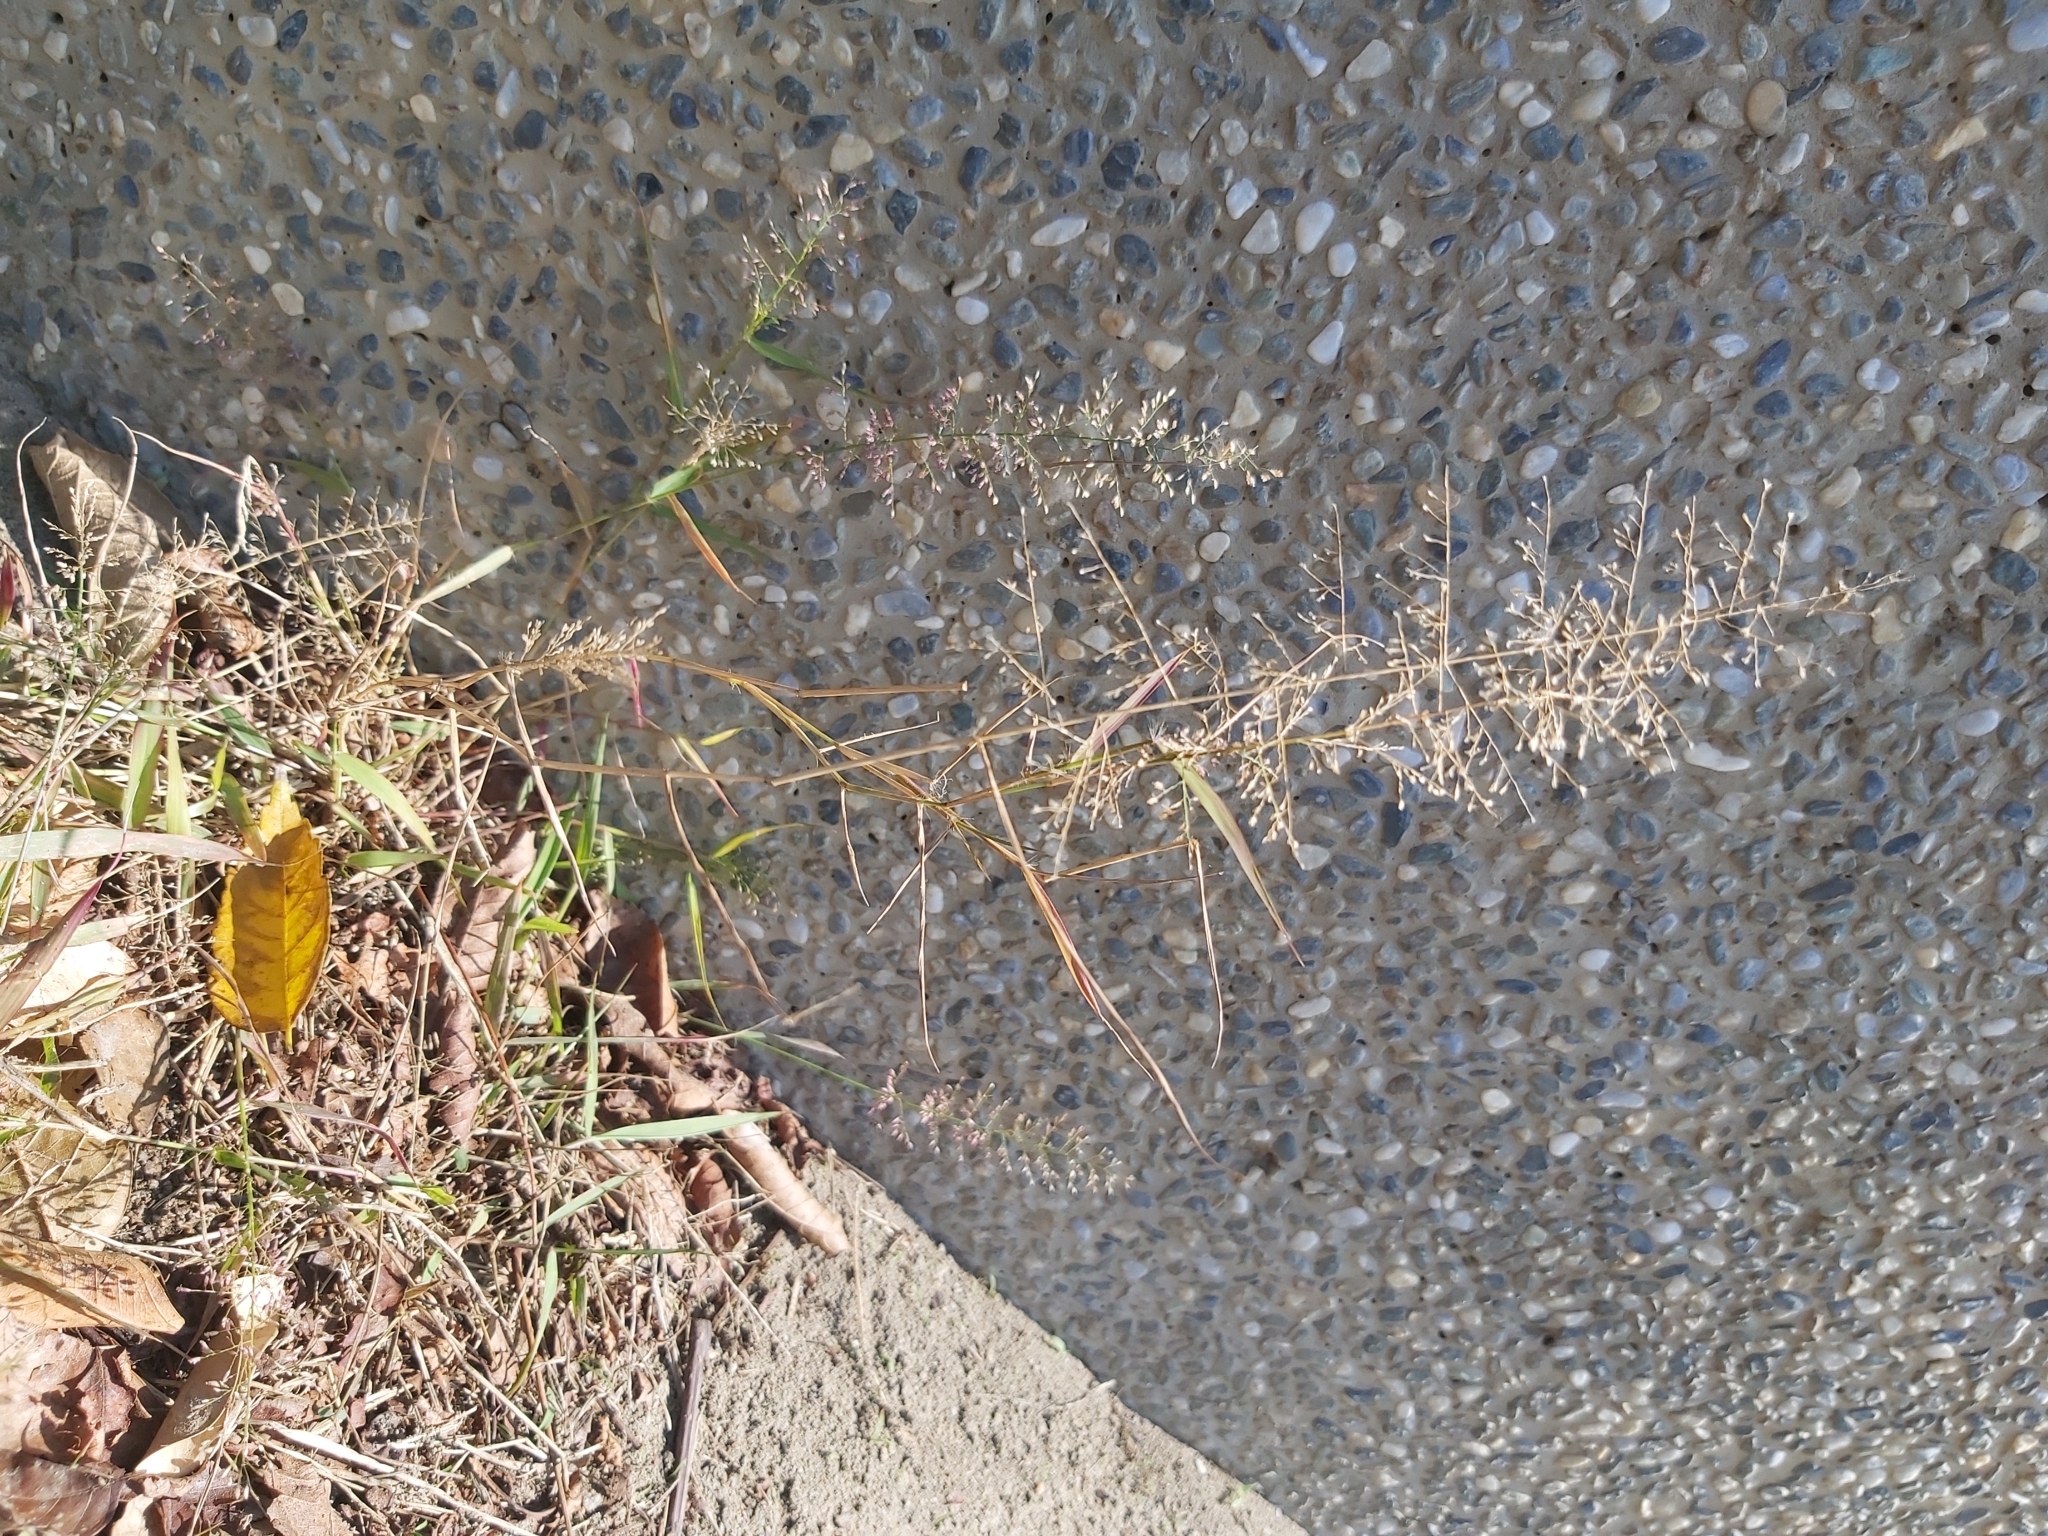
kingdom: Plantae
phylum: Tracheophyta
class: Liliopsida
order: Poales
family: Poaceae
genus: Eragrostis
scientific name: Eragrostis tenella
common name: Japanese lovegrass
